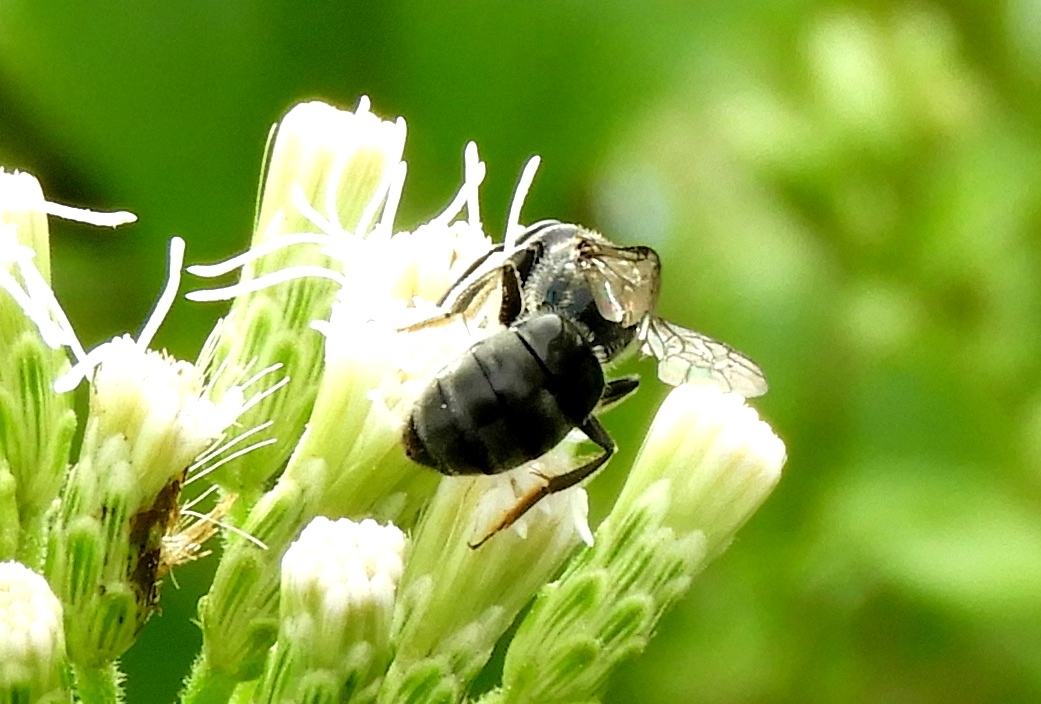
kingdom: Animalia
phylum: Arthropoda
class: Insecta
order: Hymenoptera
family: Halictidae
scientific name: Halictidae
